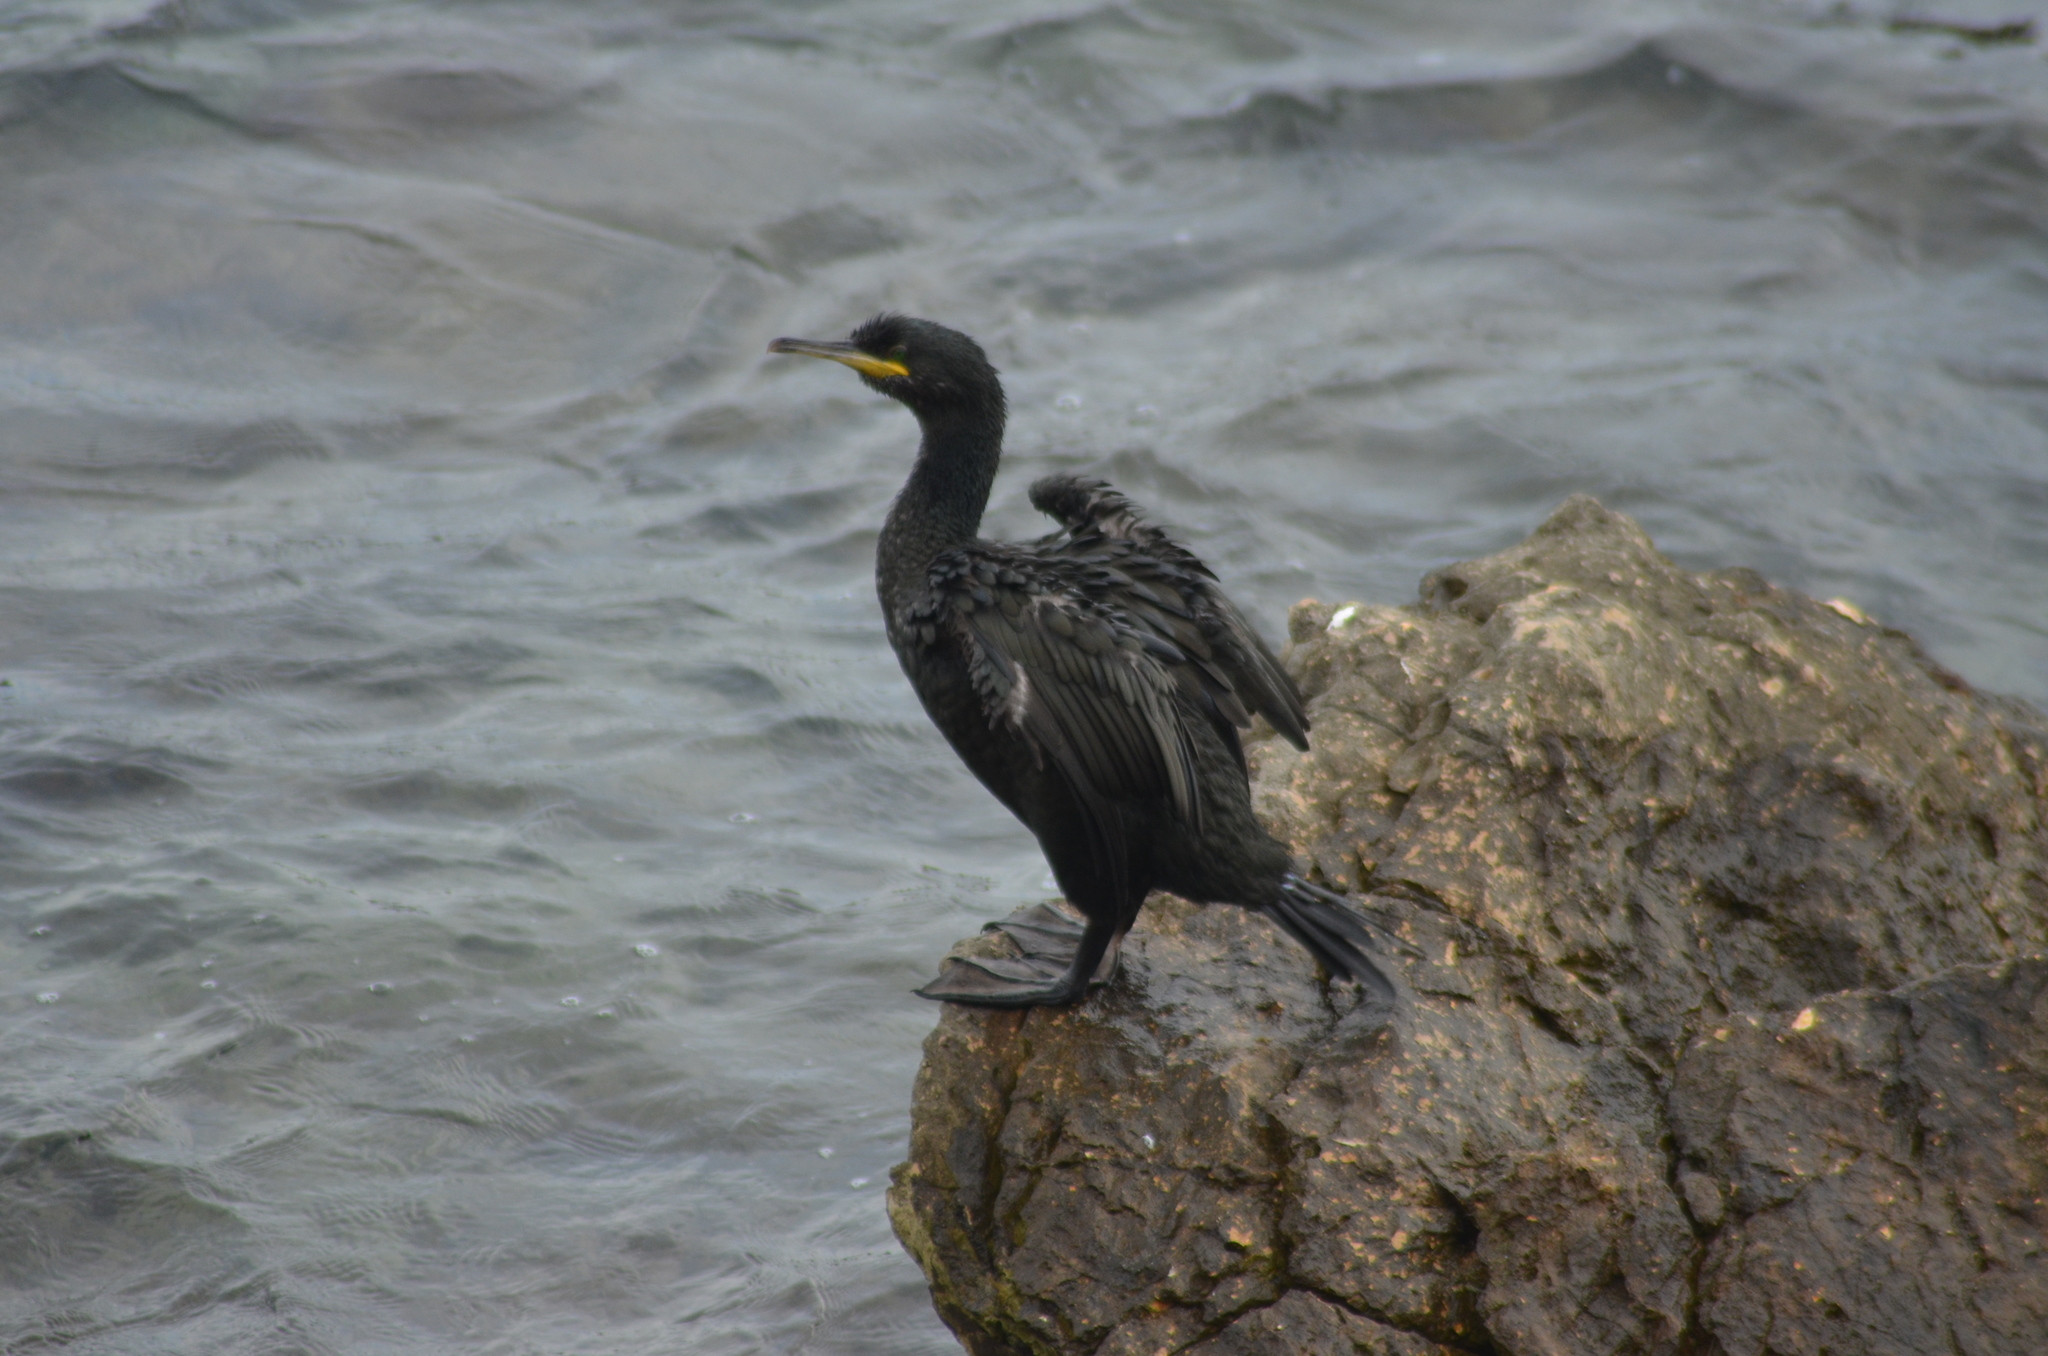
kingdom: Animalia
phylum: Chordata
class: Aves
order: Suliformes
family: Phalacrocoracidae
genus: Phalacrocorax
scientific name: Phalacrocorax aristotelis
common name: European shag
